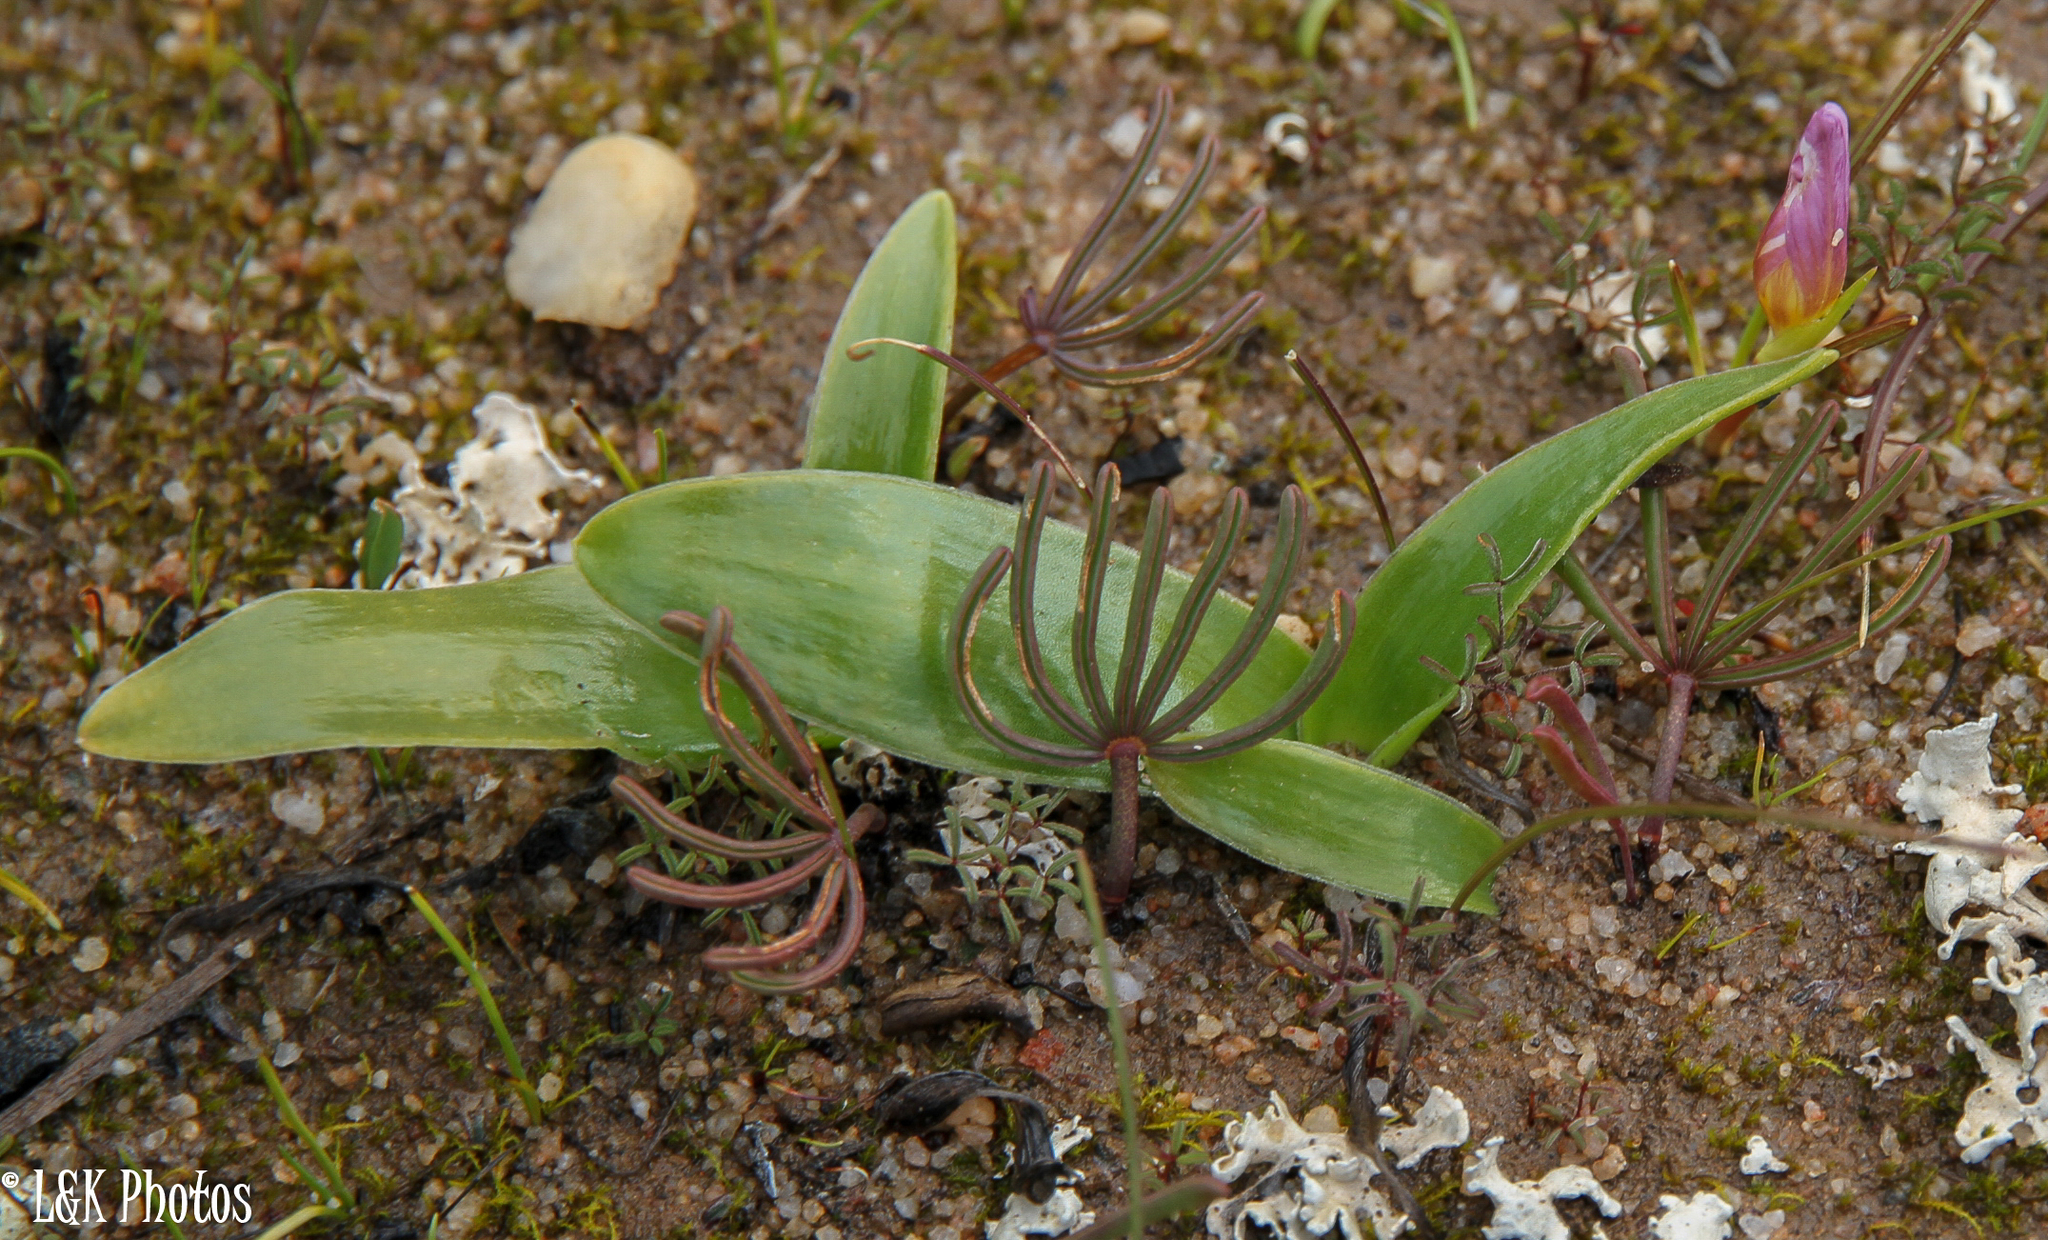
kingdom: Plantae
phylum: Tracheophyta
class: Magnoliopsida
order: Oxalidales
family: Oxalidaceae
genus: Oxalis
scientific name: Oxalis flava
